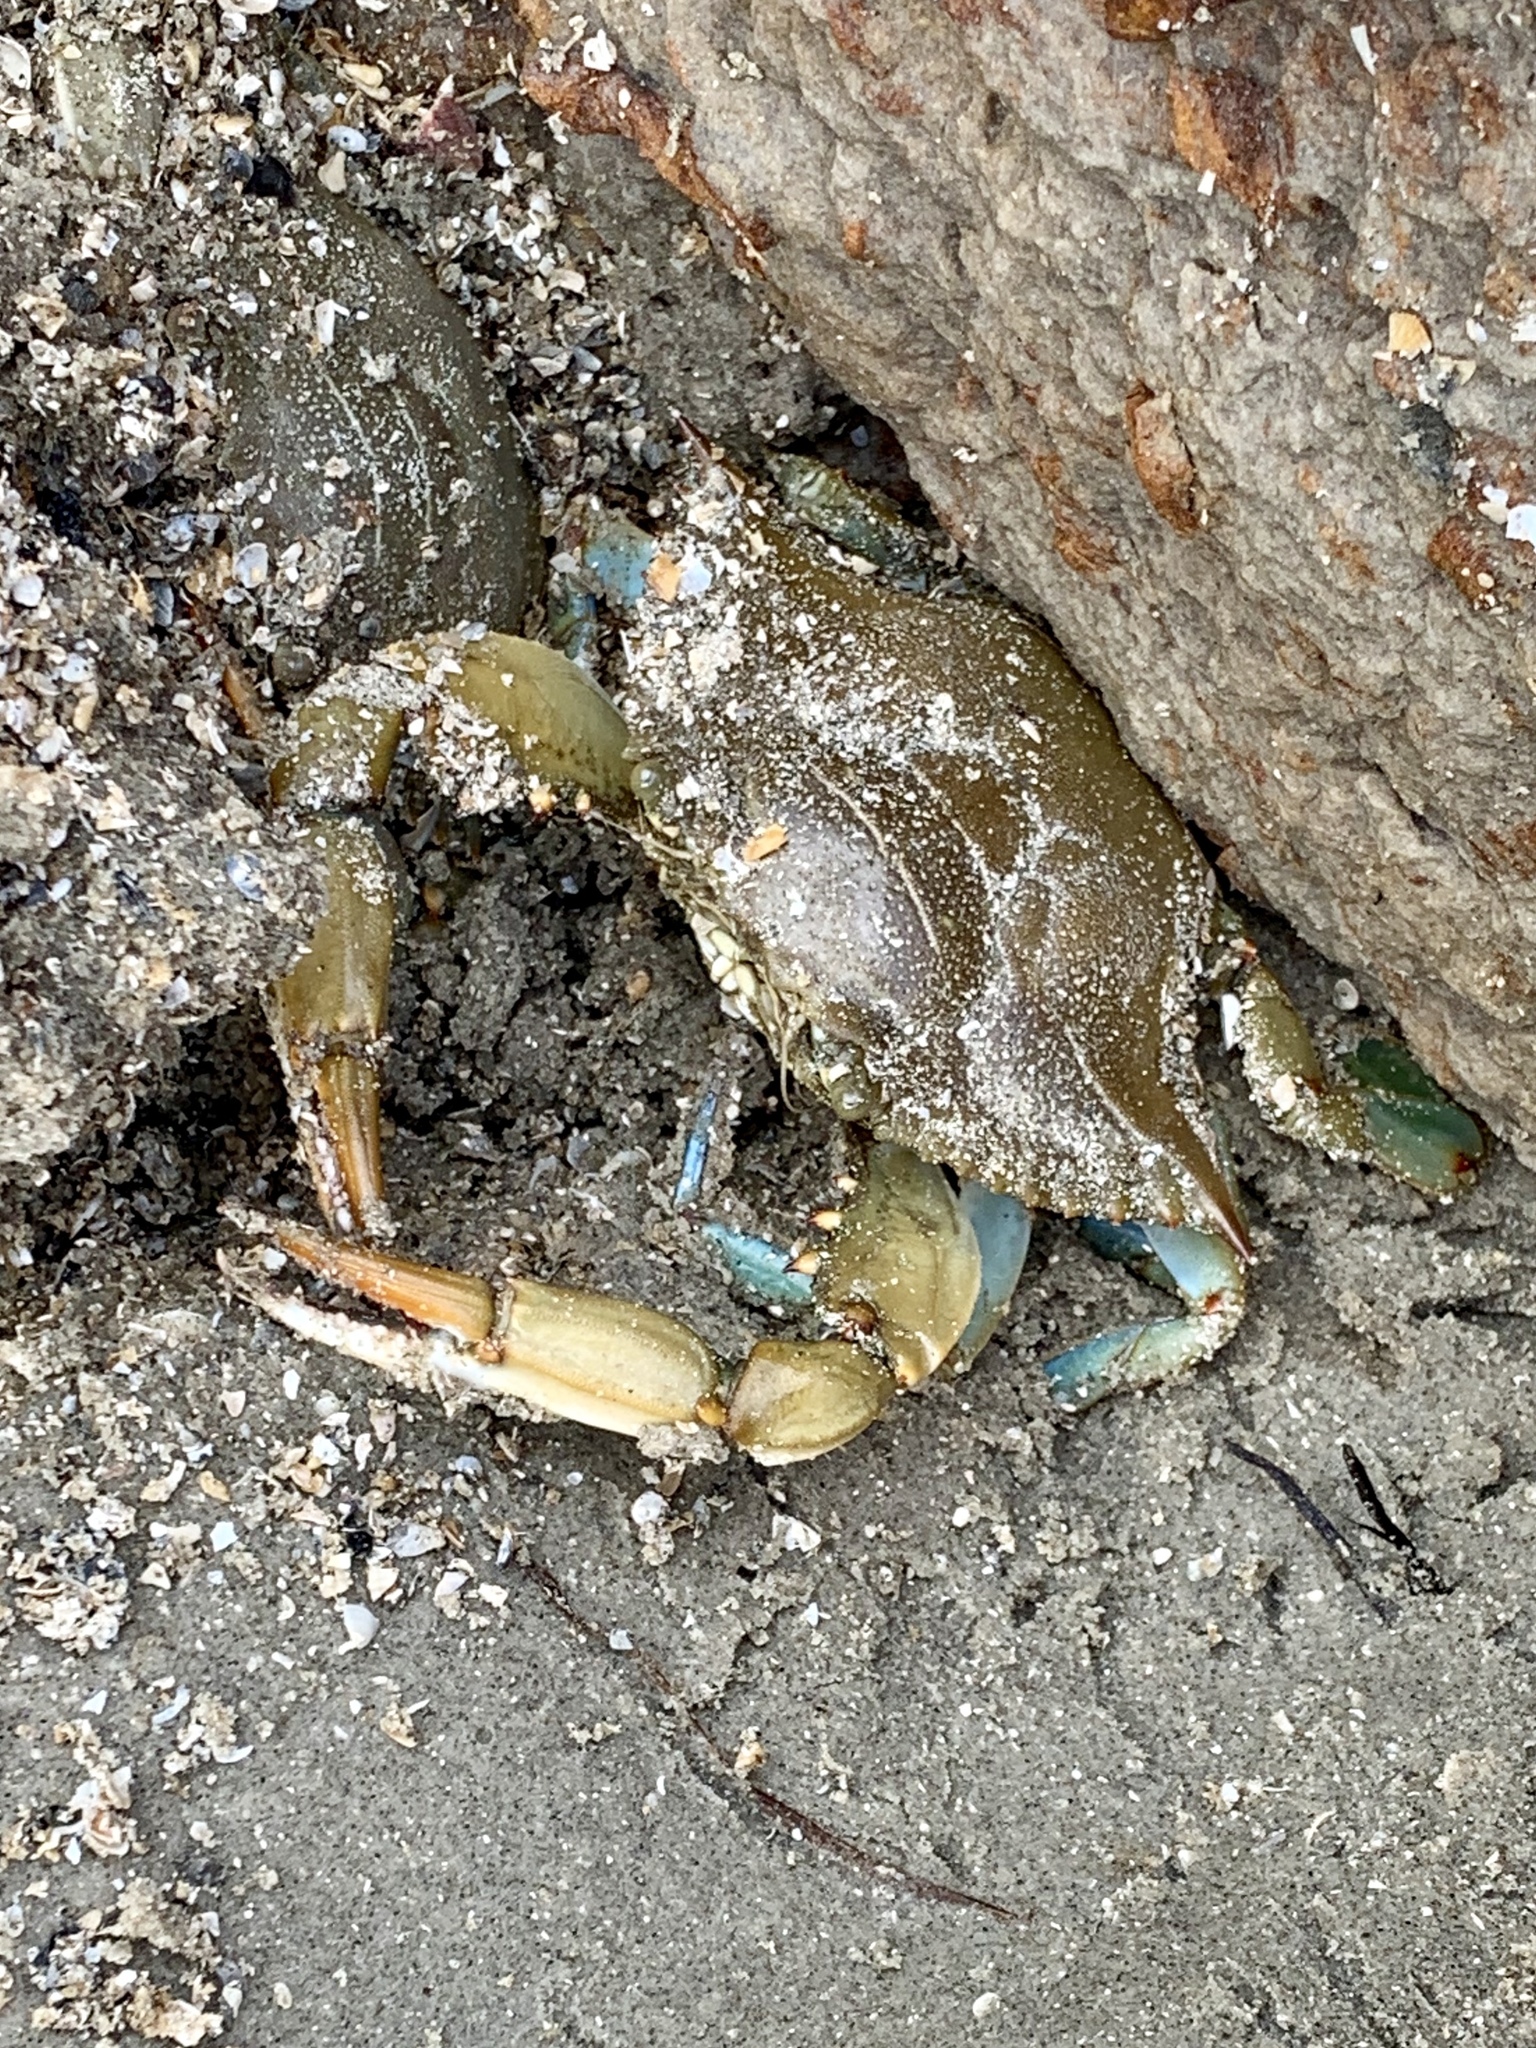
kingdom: Animalia
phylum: Arthropoda
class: Malacostraca
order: Decapoda
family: Portunidae
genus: Callinectes
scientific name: Callinectes sapidus
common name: Blue crab
